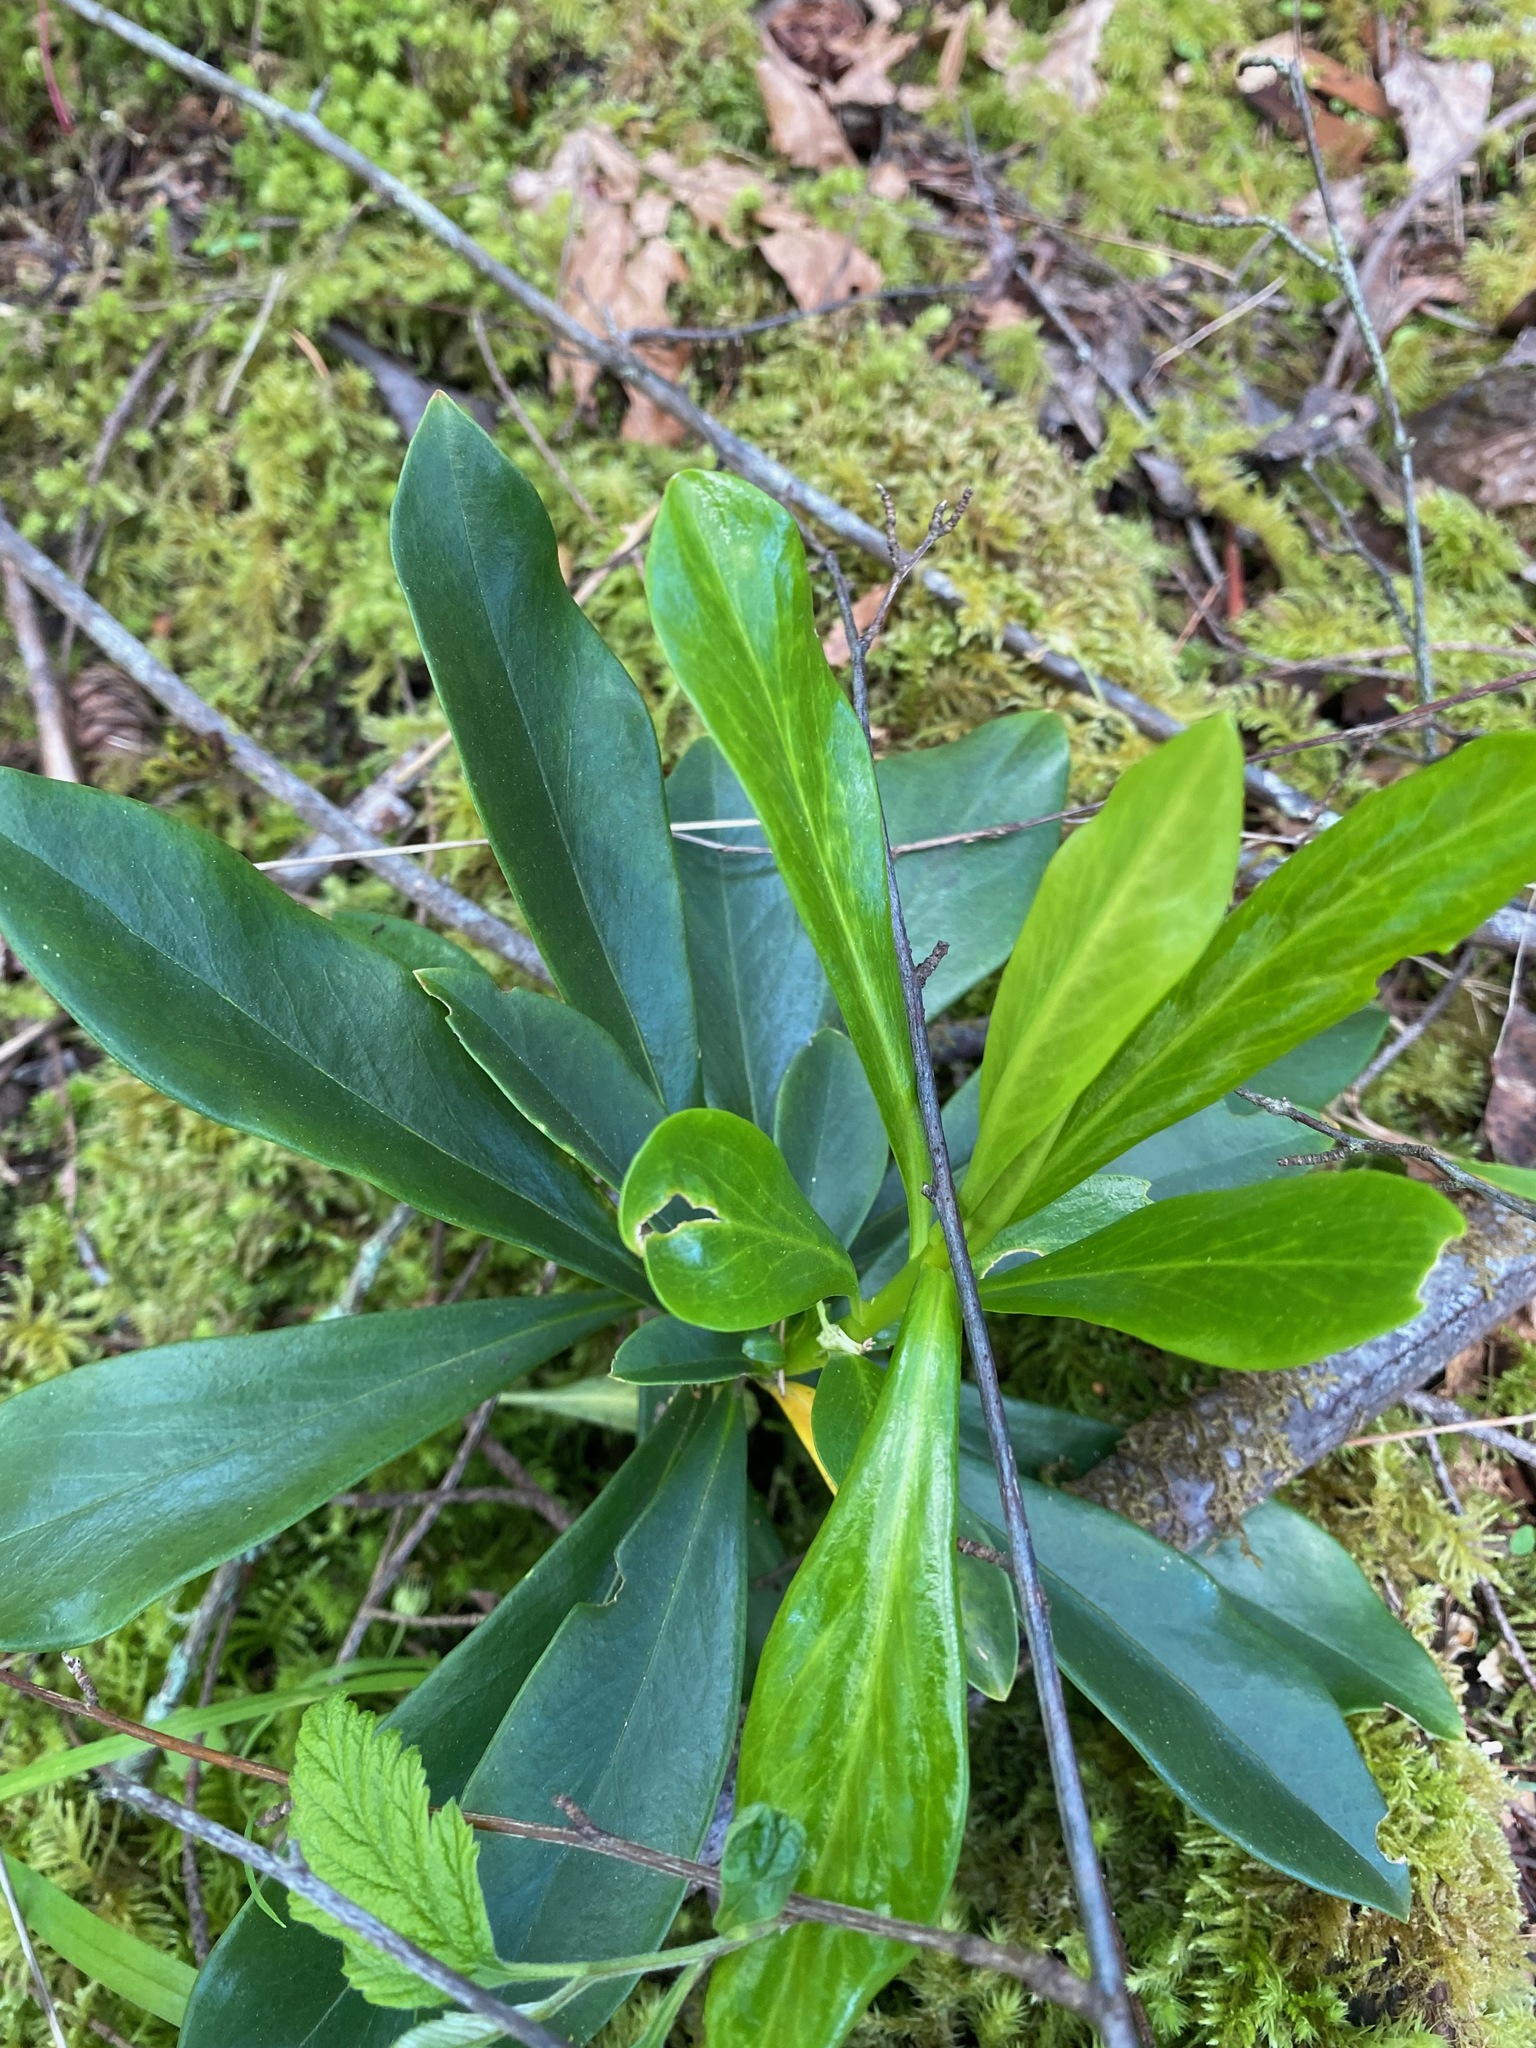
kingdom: Plantae
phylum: Tracheophyta
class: Magnoliopsida
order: Malvales
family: Thymelaeaceae
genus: Daphne
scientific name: Daphne laureola
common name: Spurge-laurel
